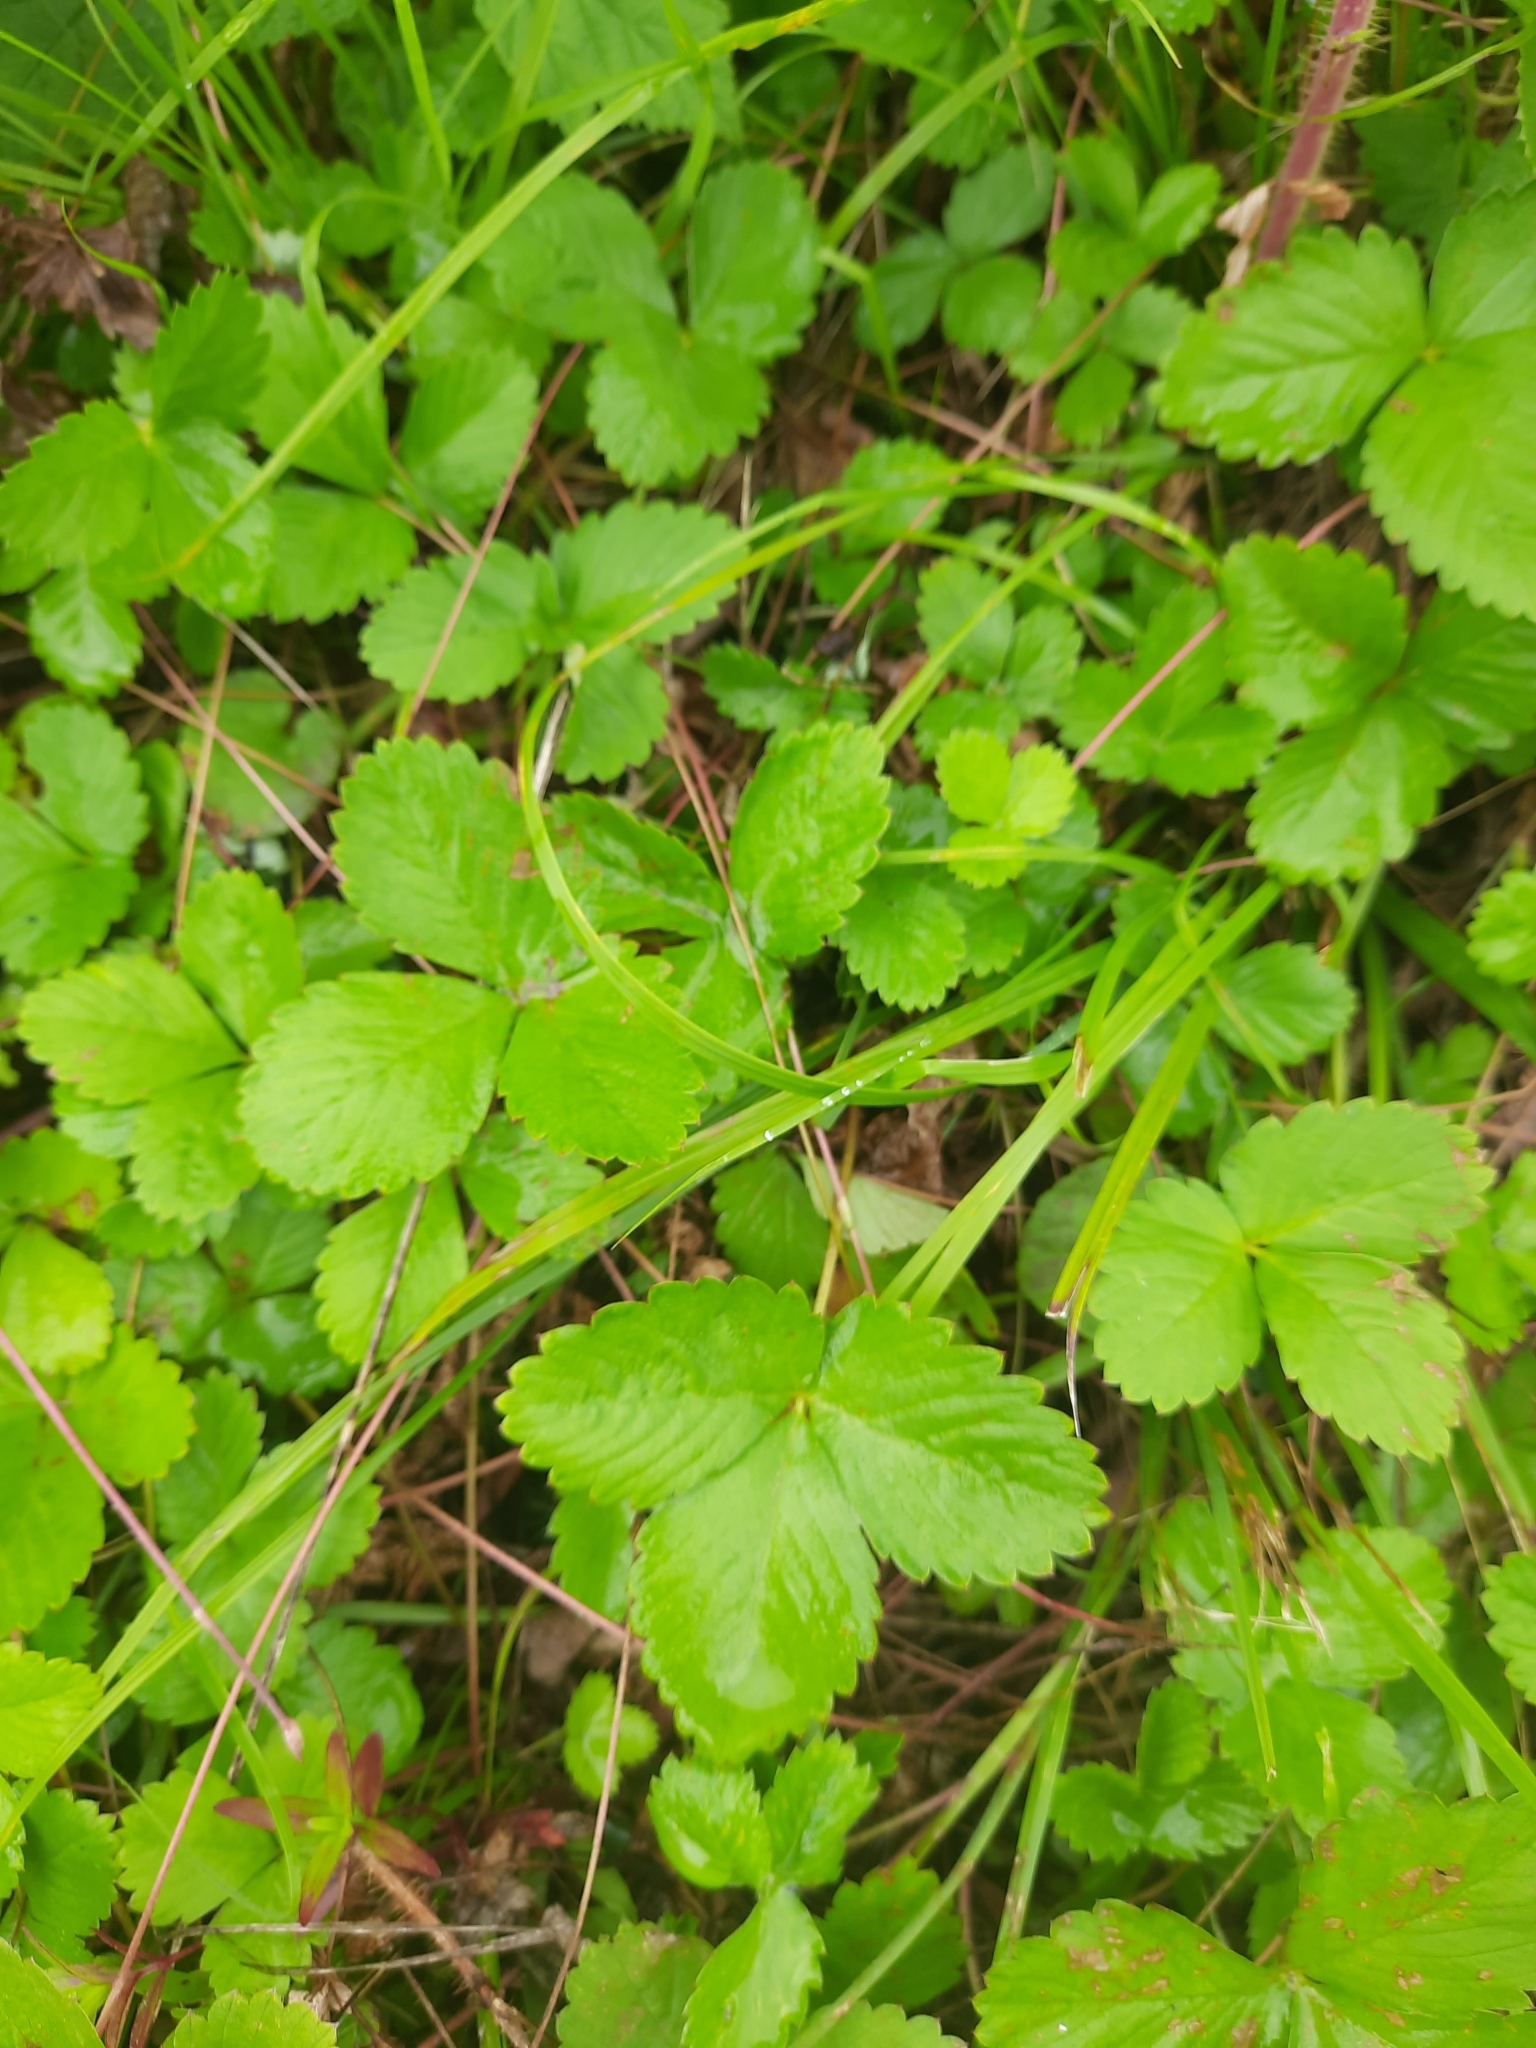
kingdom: Plantae
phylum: Tracheophyta
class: Magnoliopsida
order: Rosales
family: Rosaceae
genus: Fragaria
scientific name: Fragaria vesca
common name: Wild strawberry
